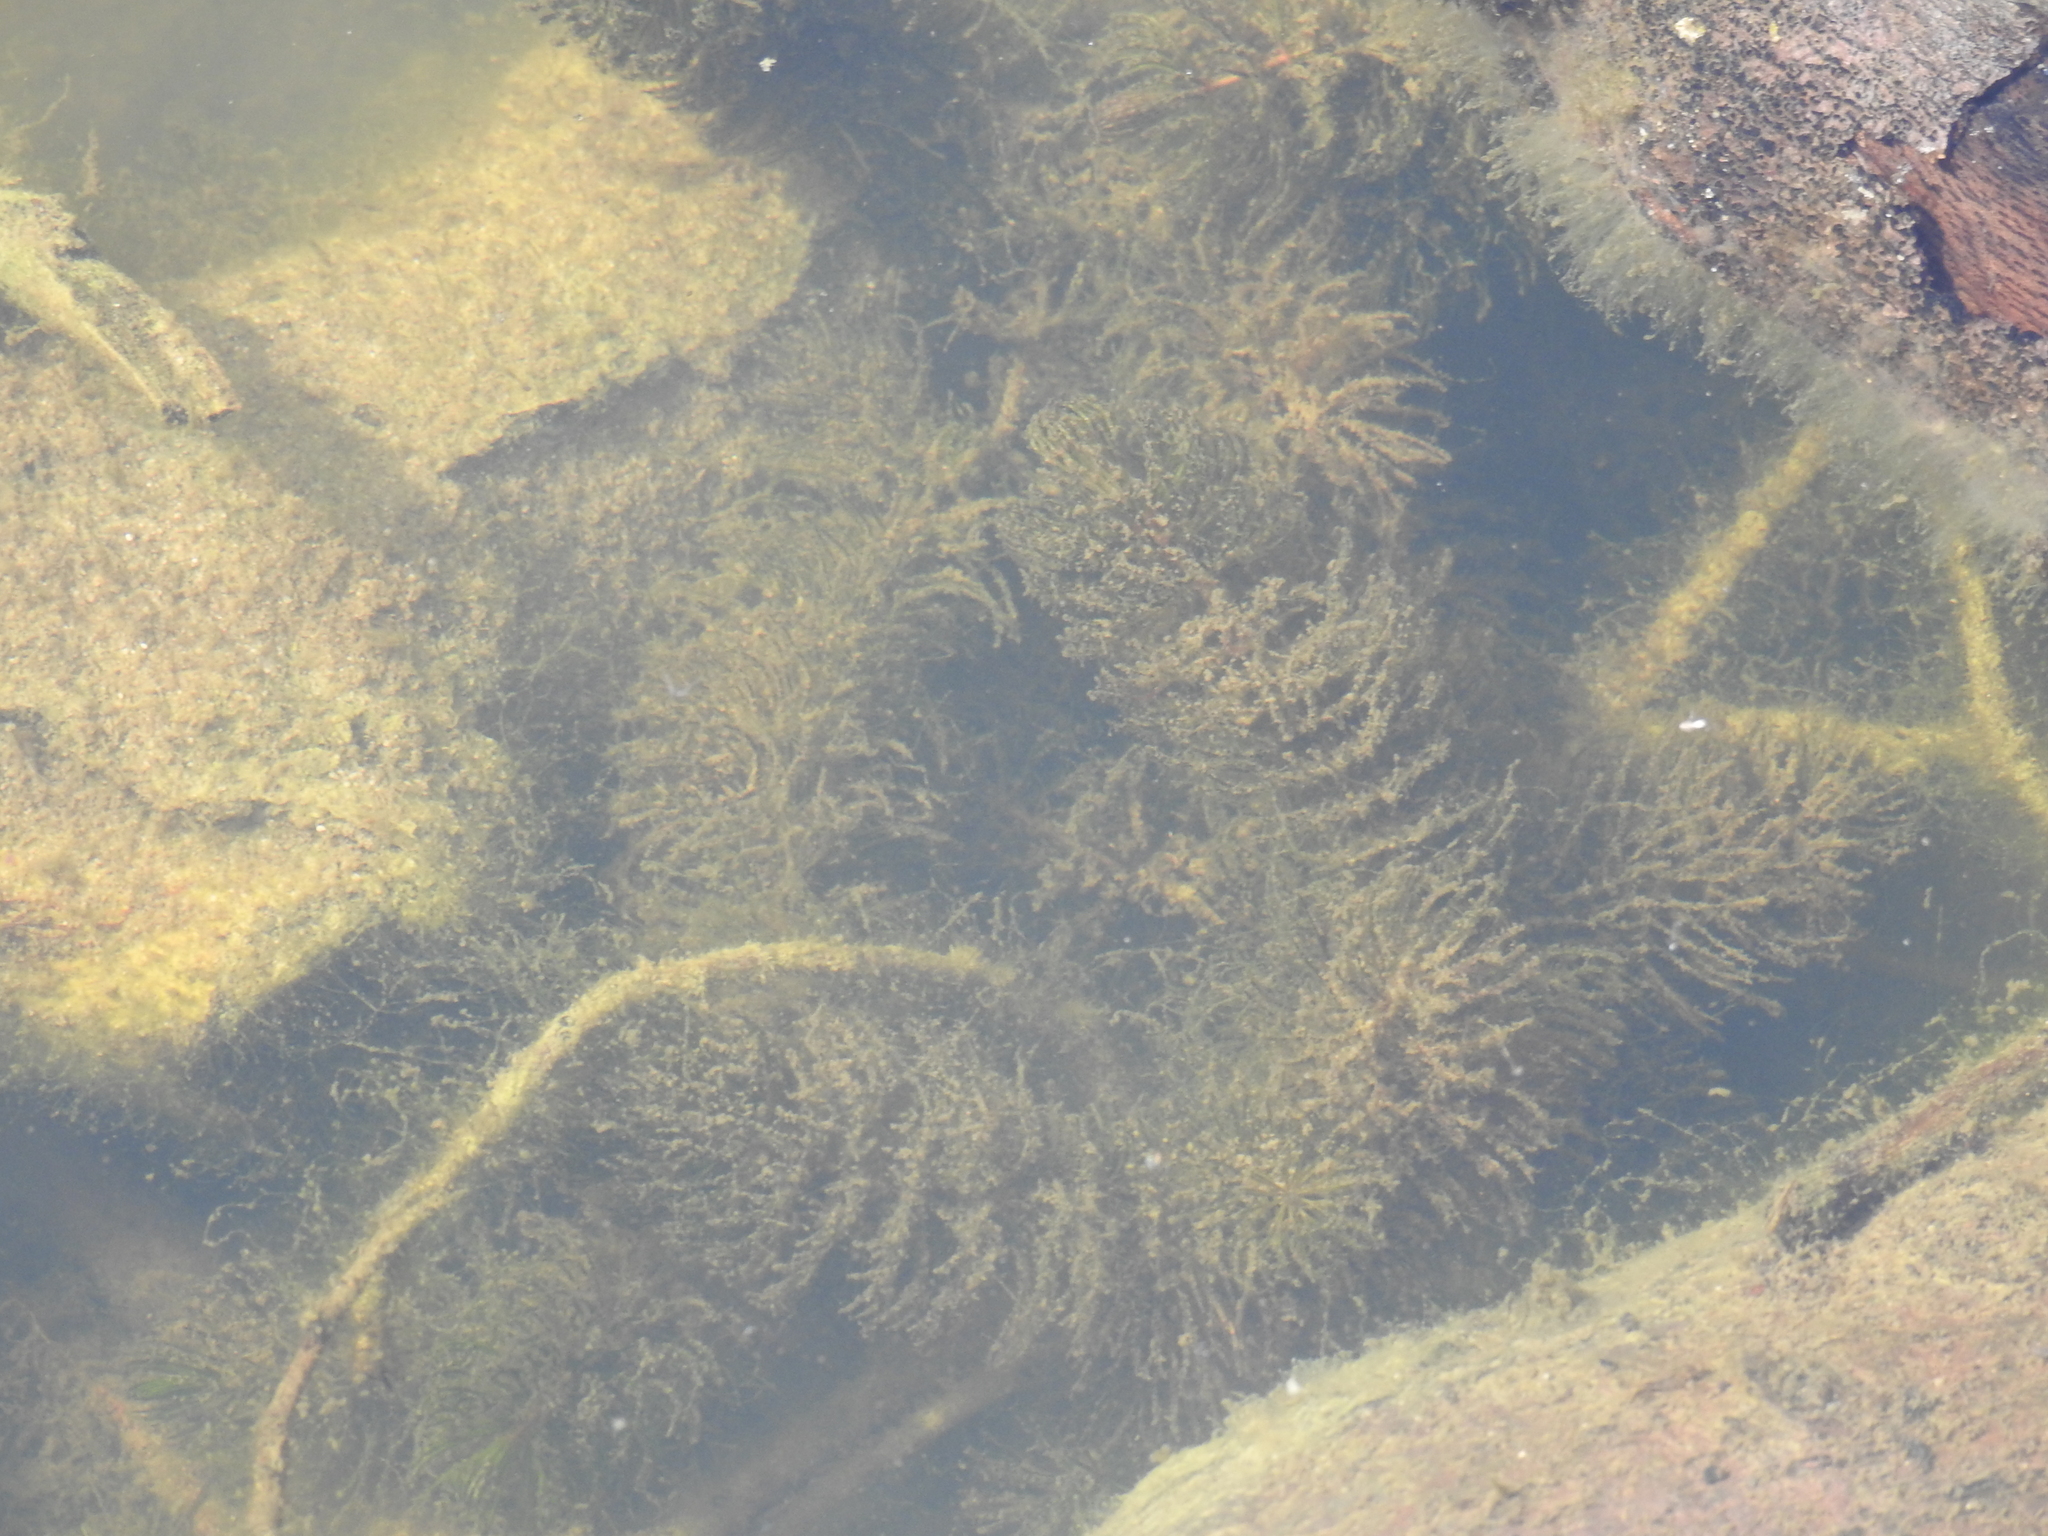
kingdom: Plantae
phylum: Tracheophyta
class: Magnoliopsida
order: Ceratophyllales
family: Ceratophyllaceae
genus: Ceratophyllum
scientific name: Ceratophyllum demersum
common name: Rigid hornwort
